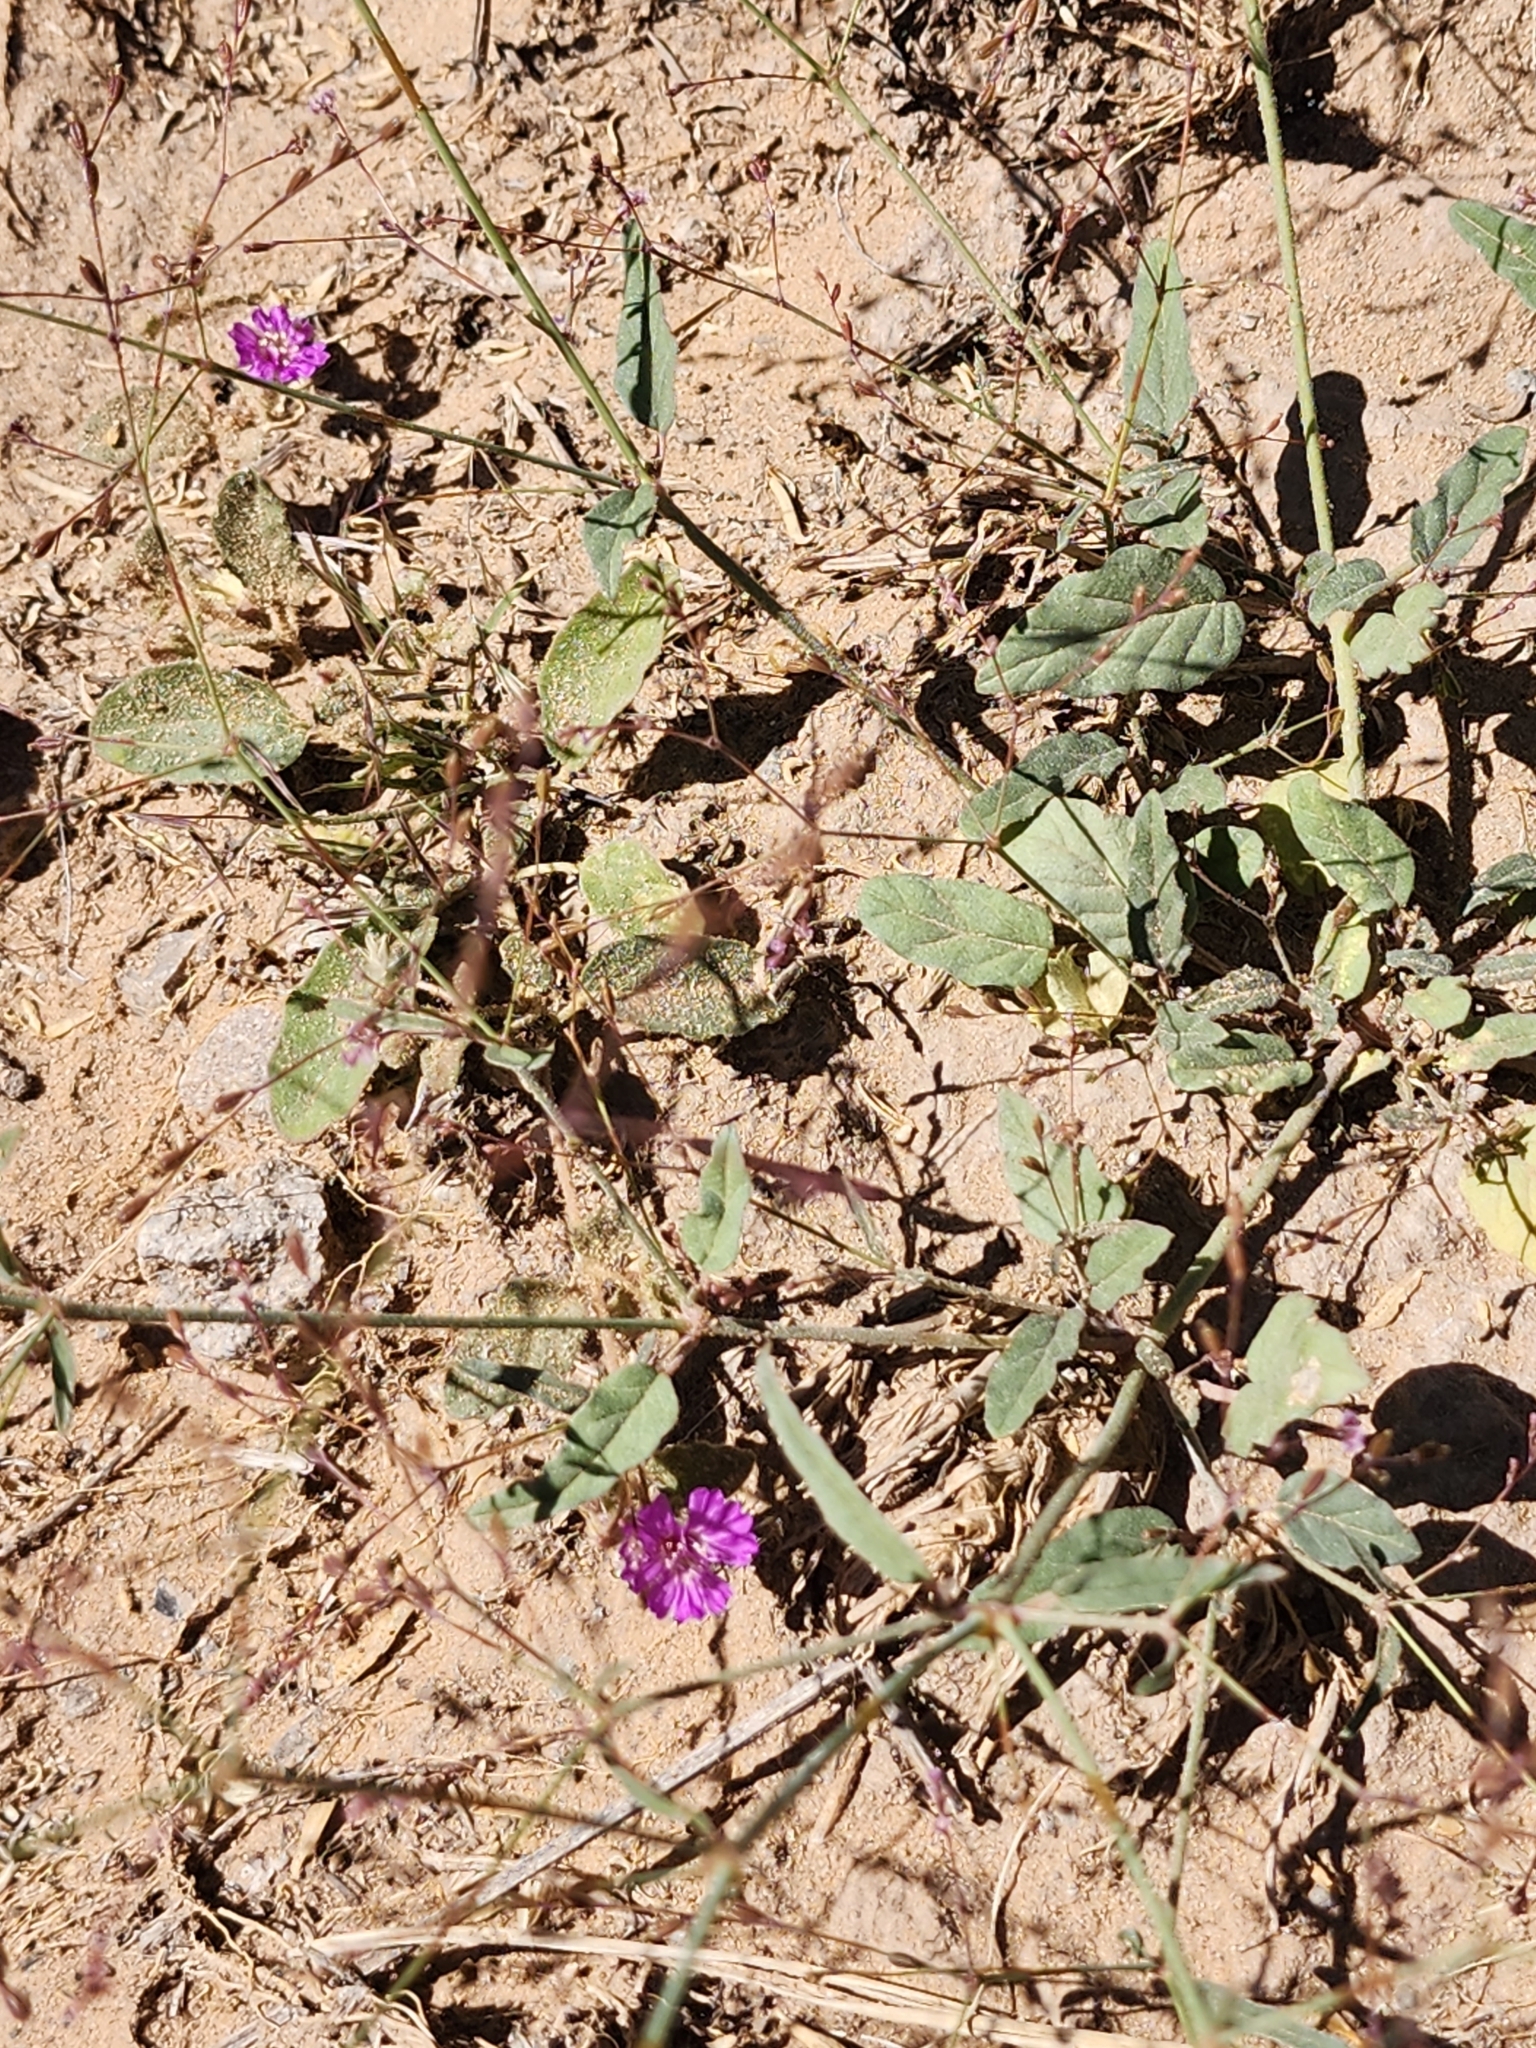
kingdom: Plantae
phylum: Tracheophyta
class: Magnoliopsida
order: Caryophyllales
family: Nyctaginaceae
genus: Boerhavia
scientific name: Boerhavia torreyana
